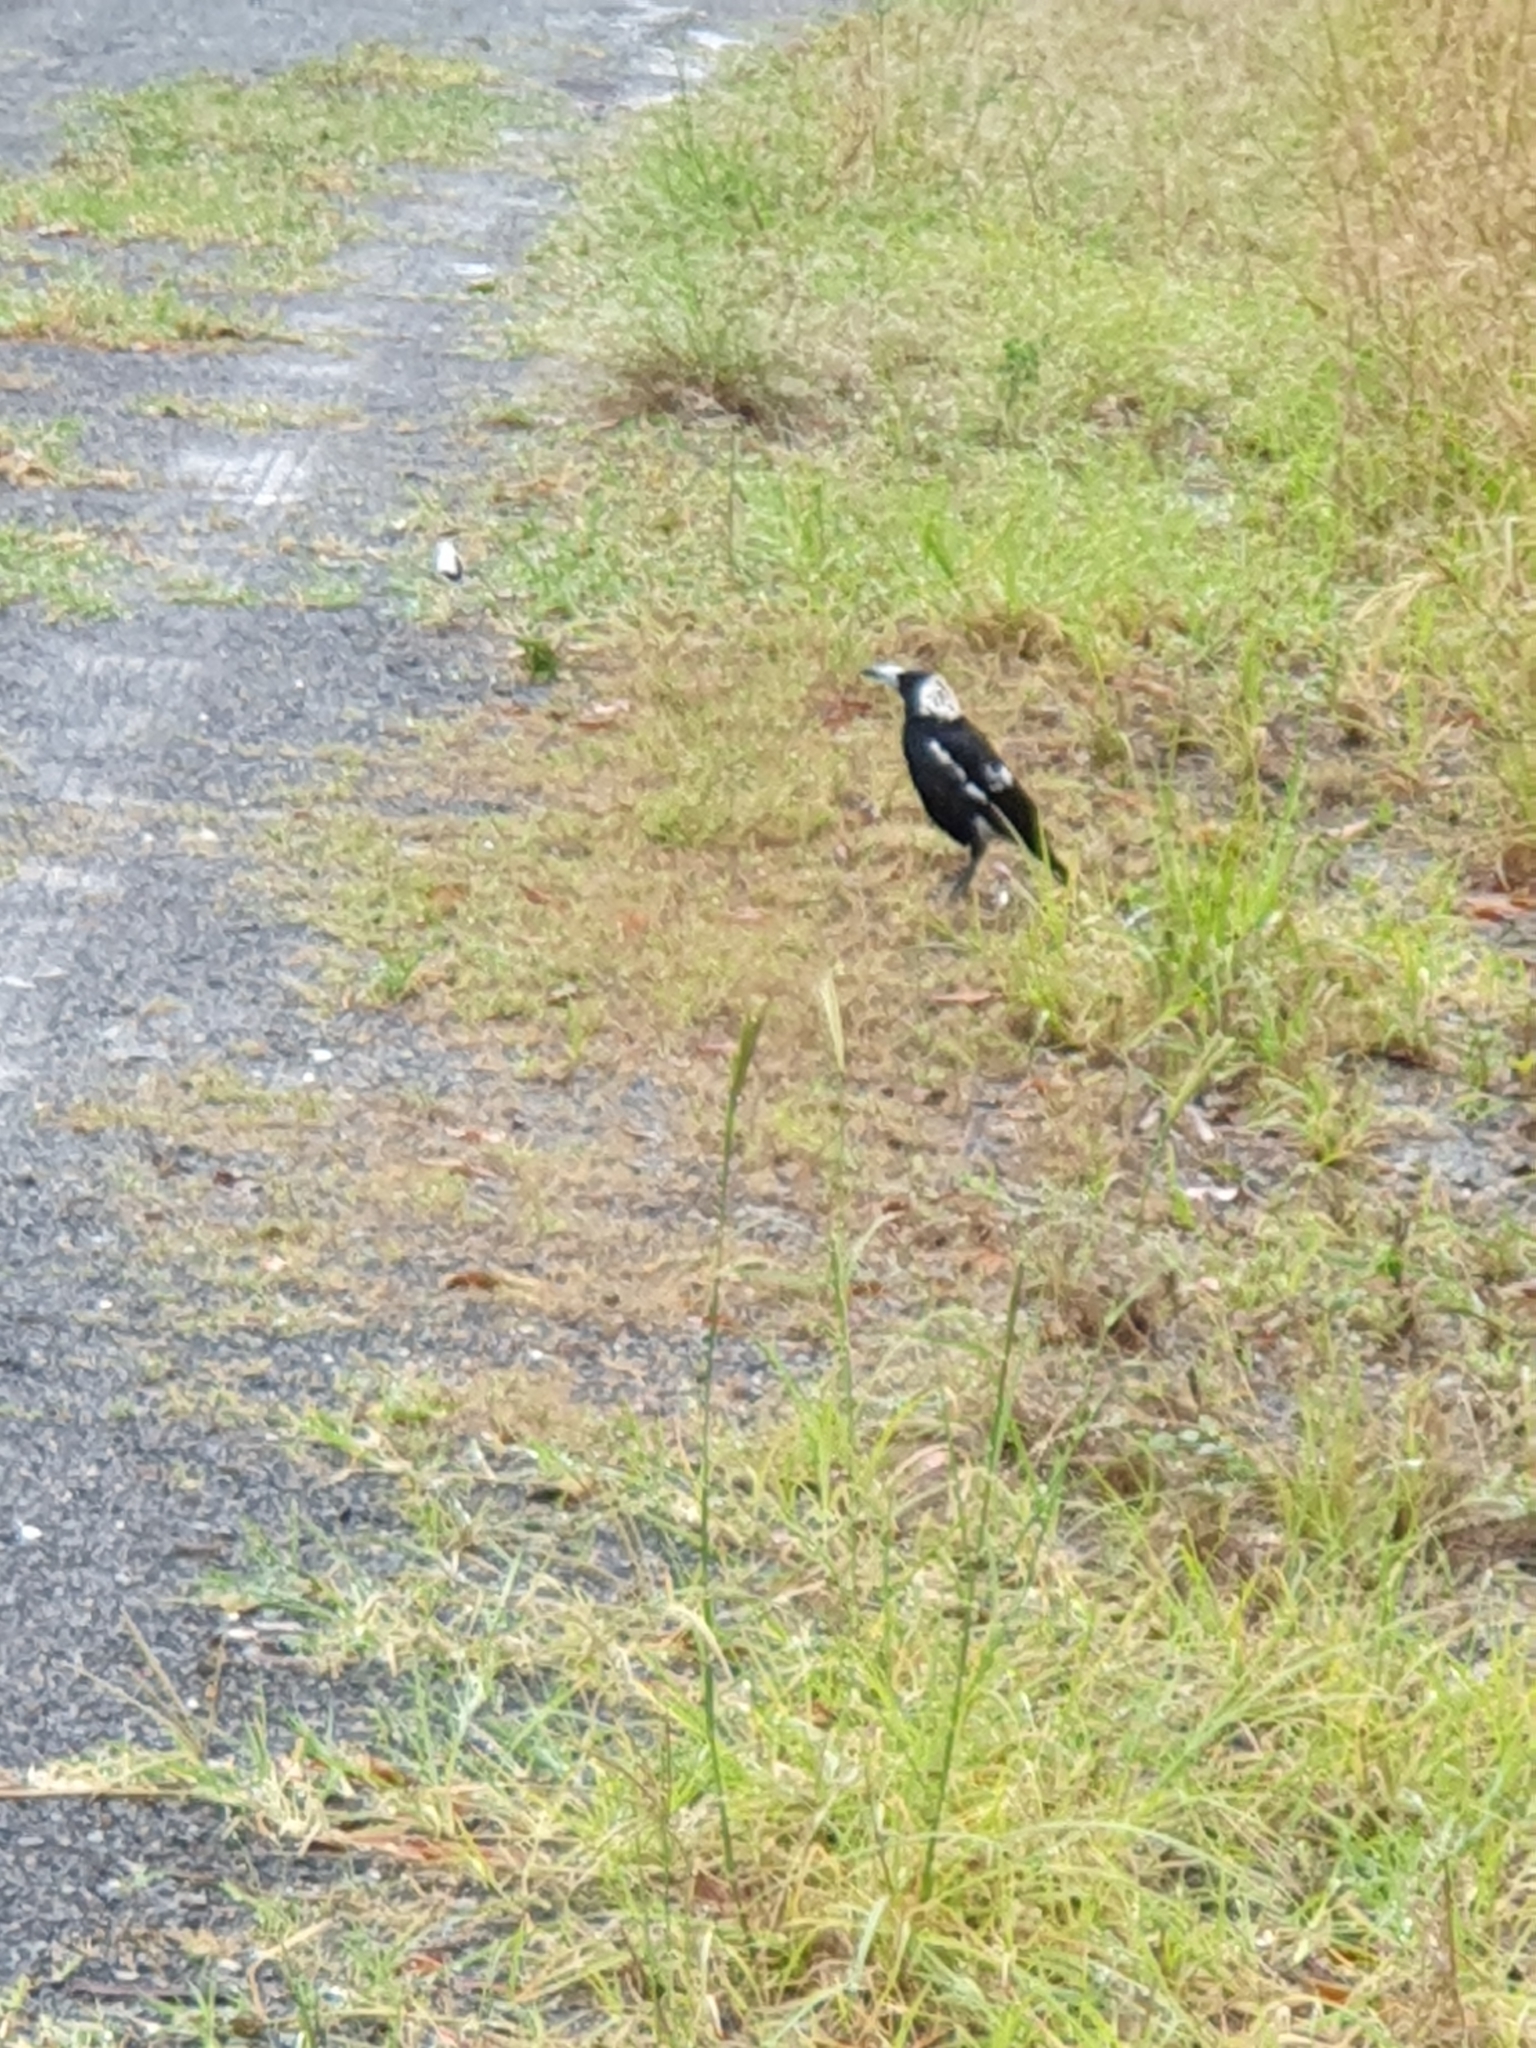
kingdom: Animalia
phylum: Chordata
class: Aves
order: Passeriformes
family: Cracticidae
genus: Gymnorhina
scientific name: Gymnorhina tibicen
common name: Australian magpie
